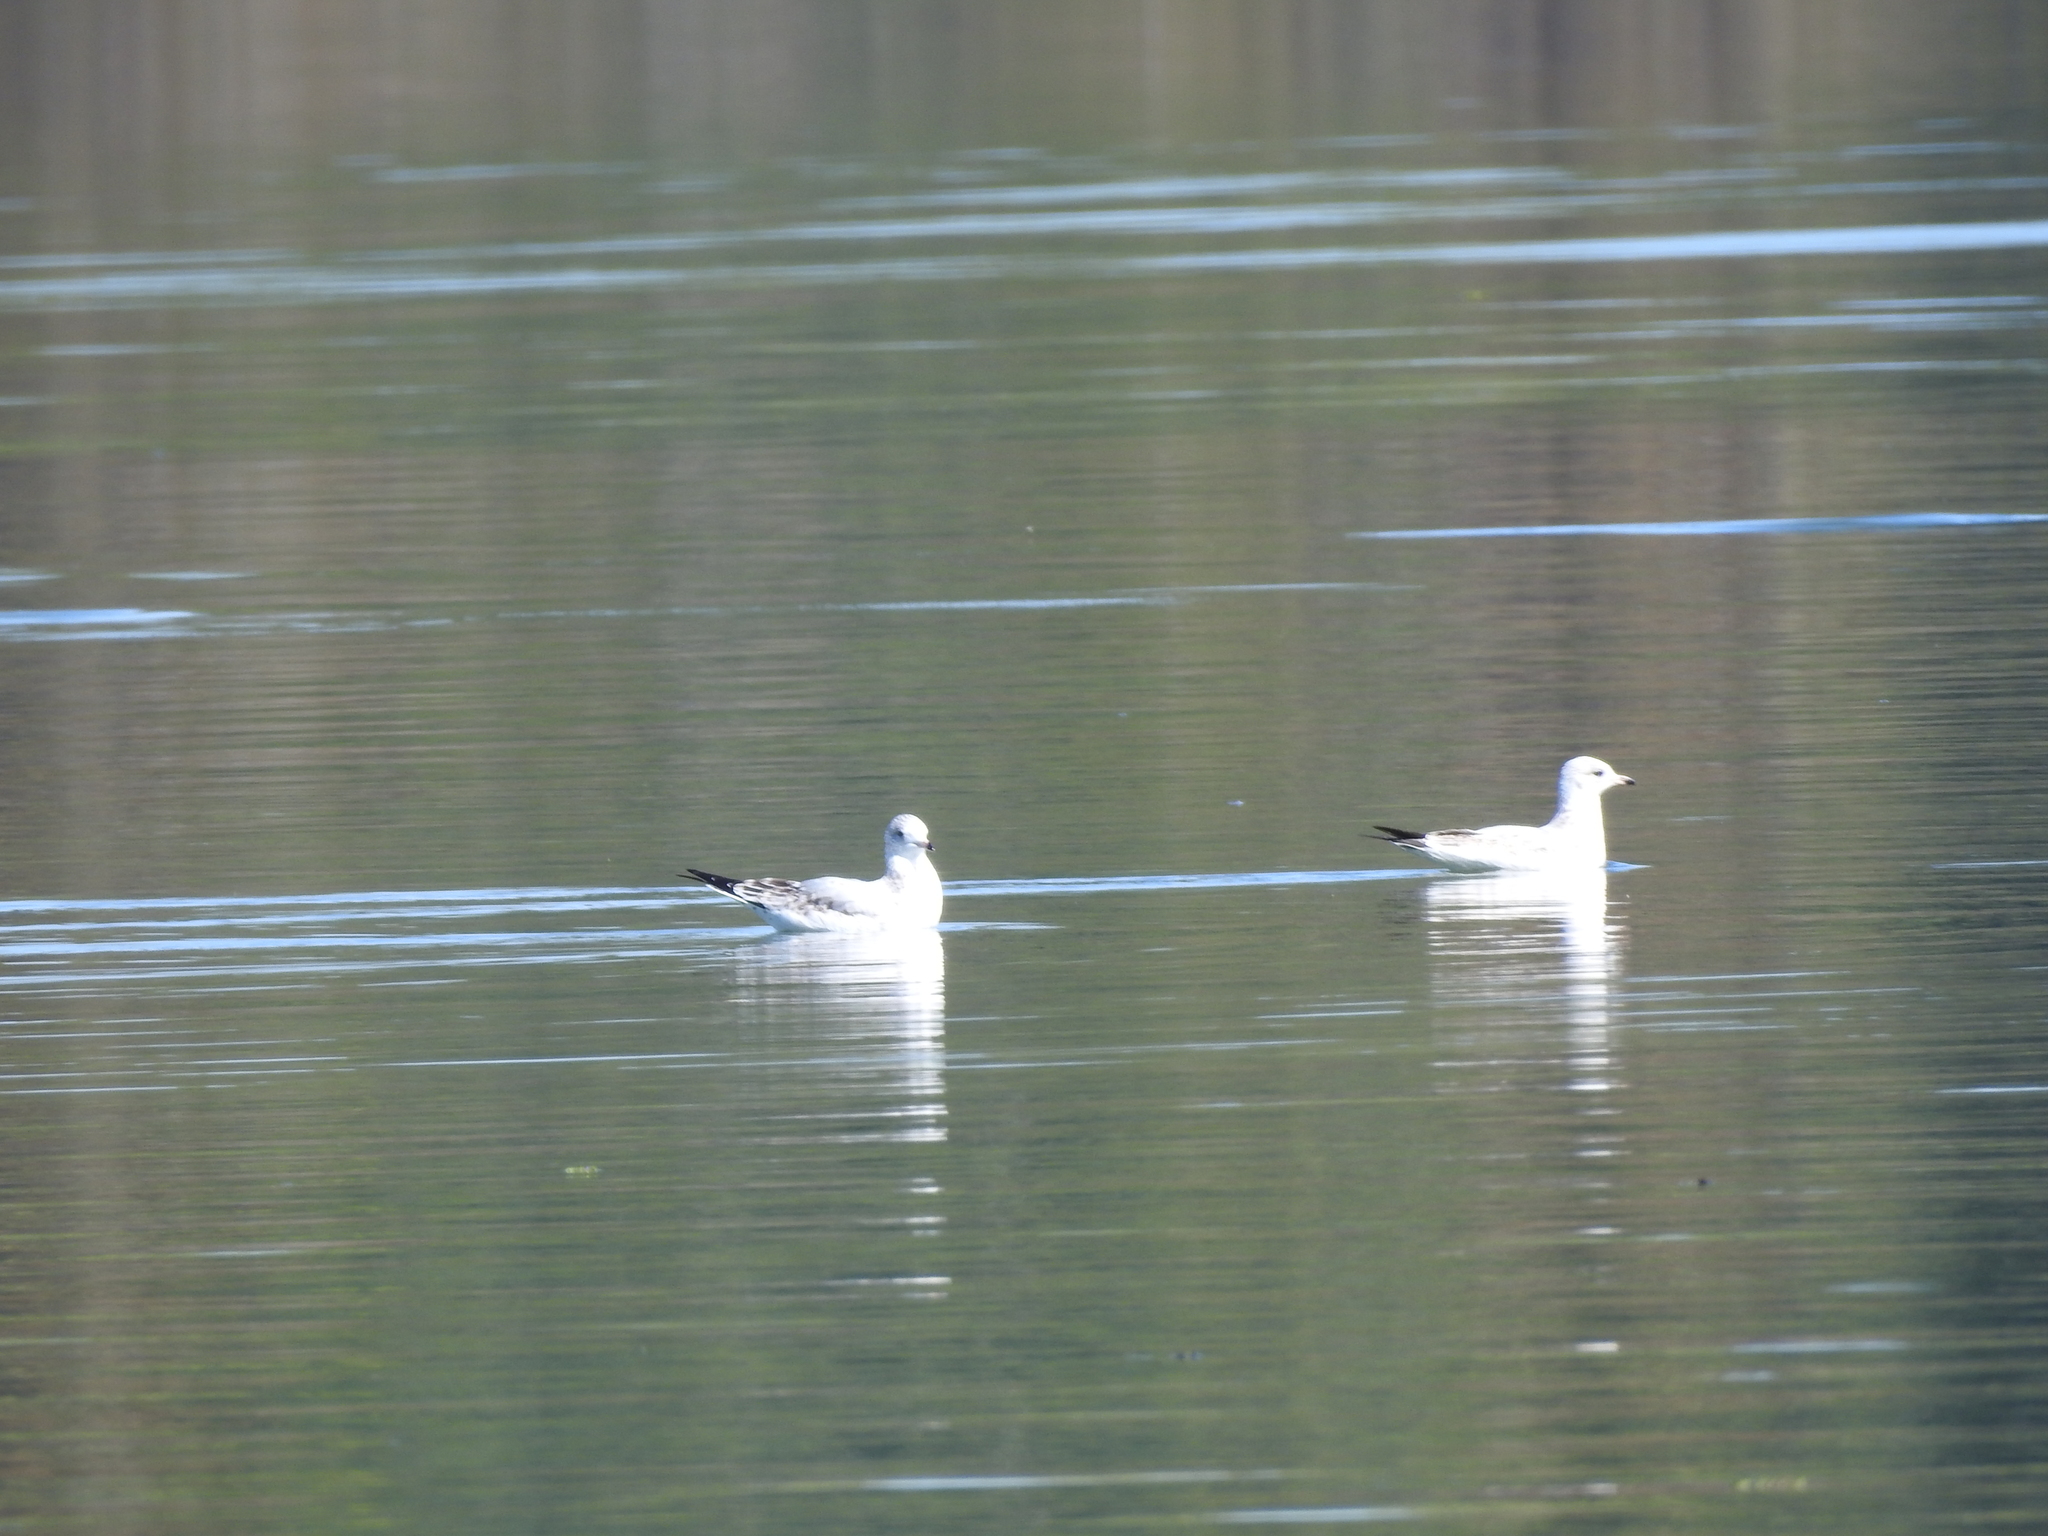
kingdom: Animalia
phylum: Chordata
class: Aves
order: Charadriiformes
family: Laridae
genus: Larus
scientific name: Larus delawarensis
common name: Ring-billed gull
